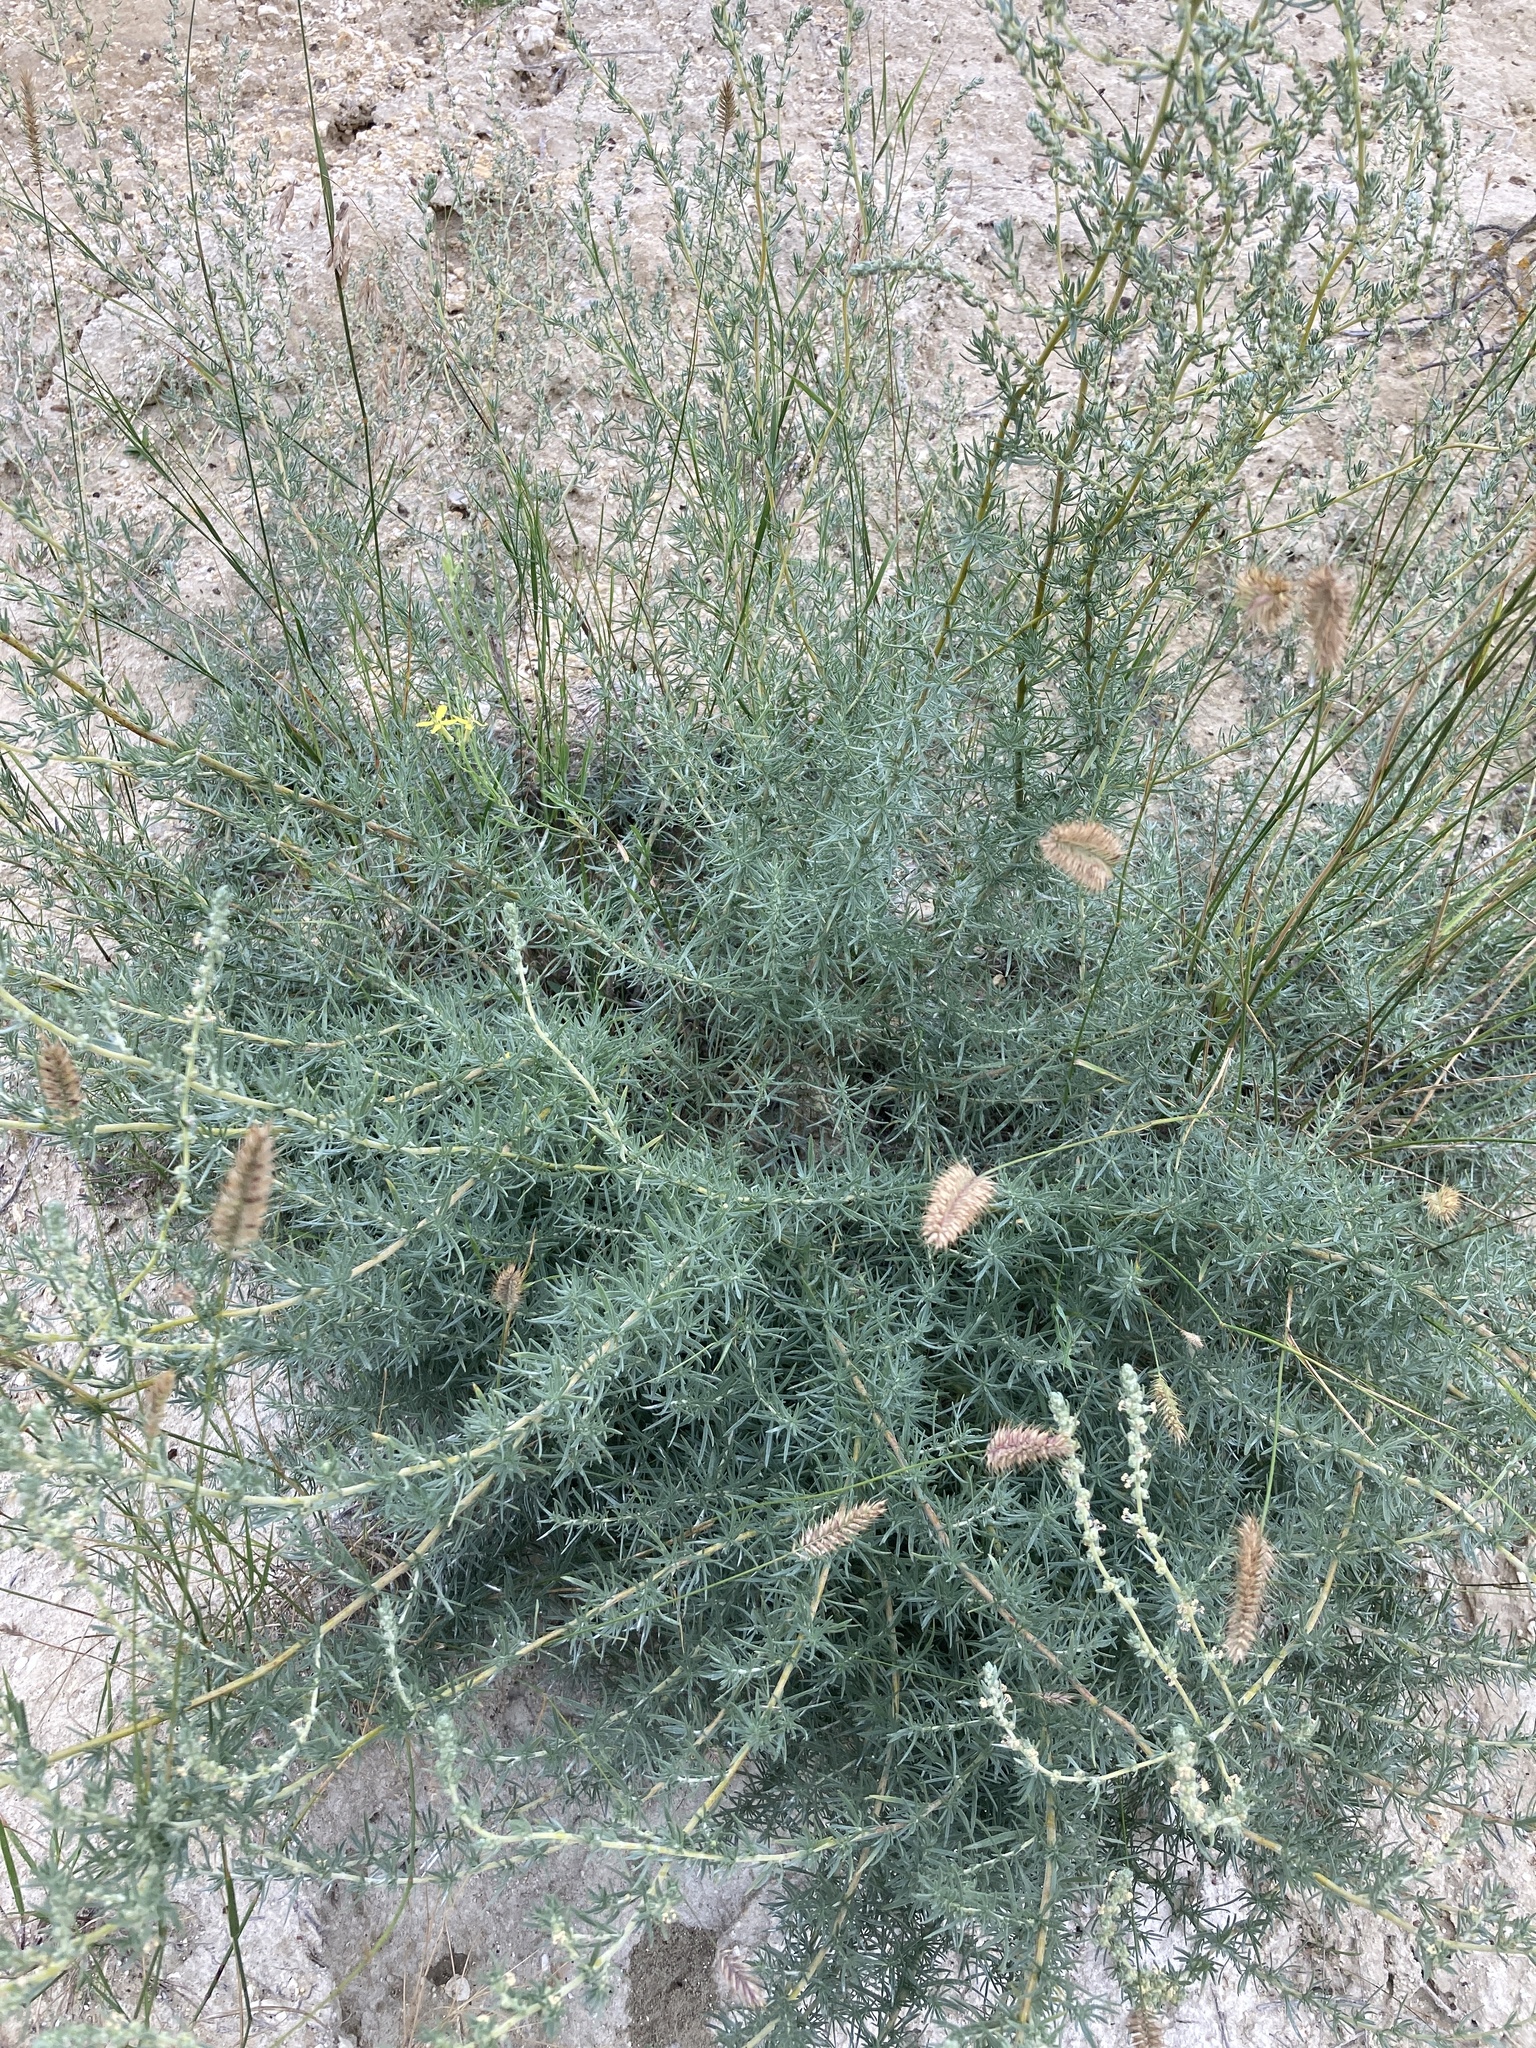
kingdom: Plantae
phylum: Tracheophyta
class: Magnoliopsida
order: Caryophyllales
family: Amaranthaceae
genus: Bassia
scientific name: Bassia prostrata
